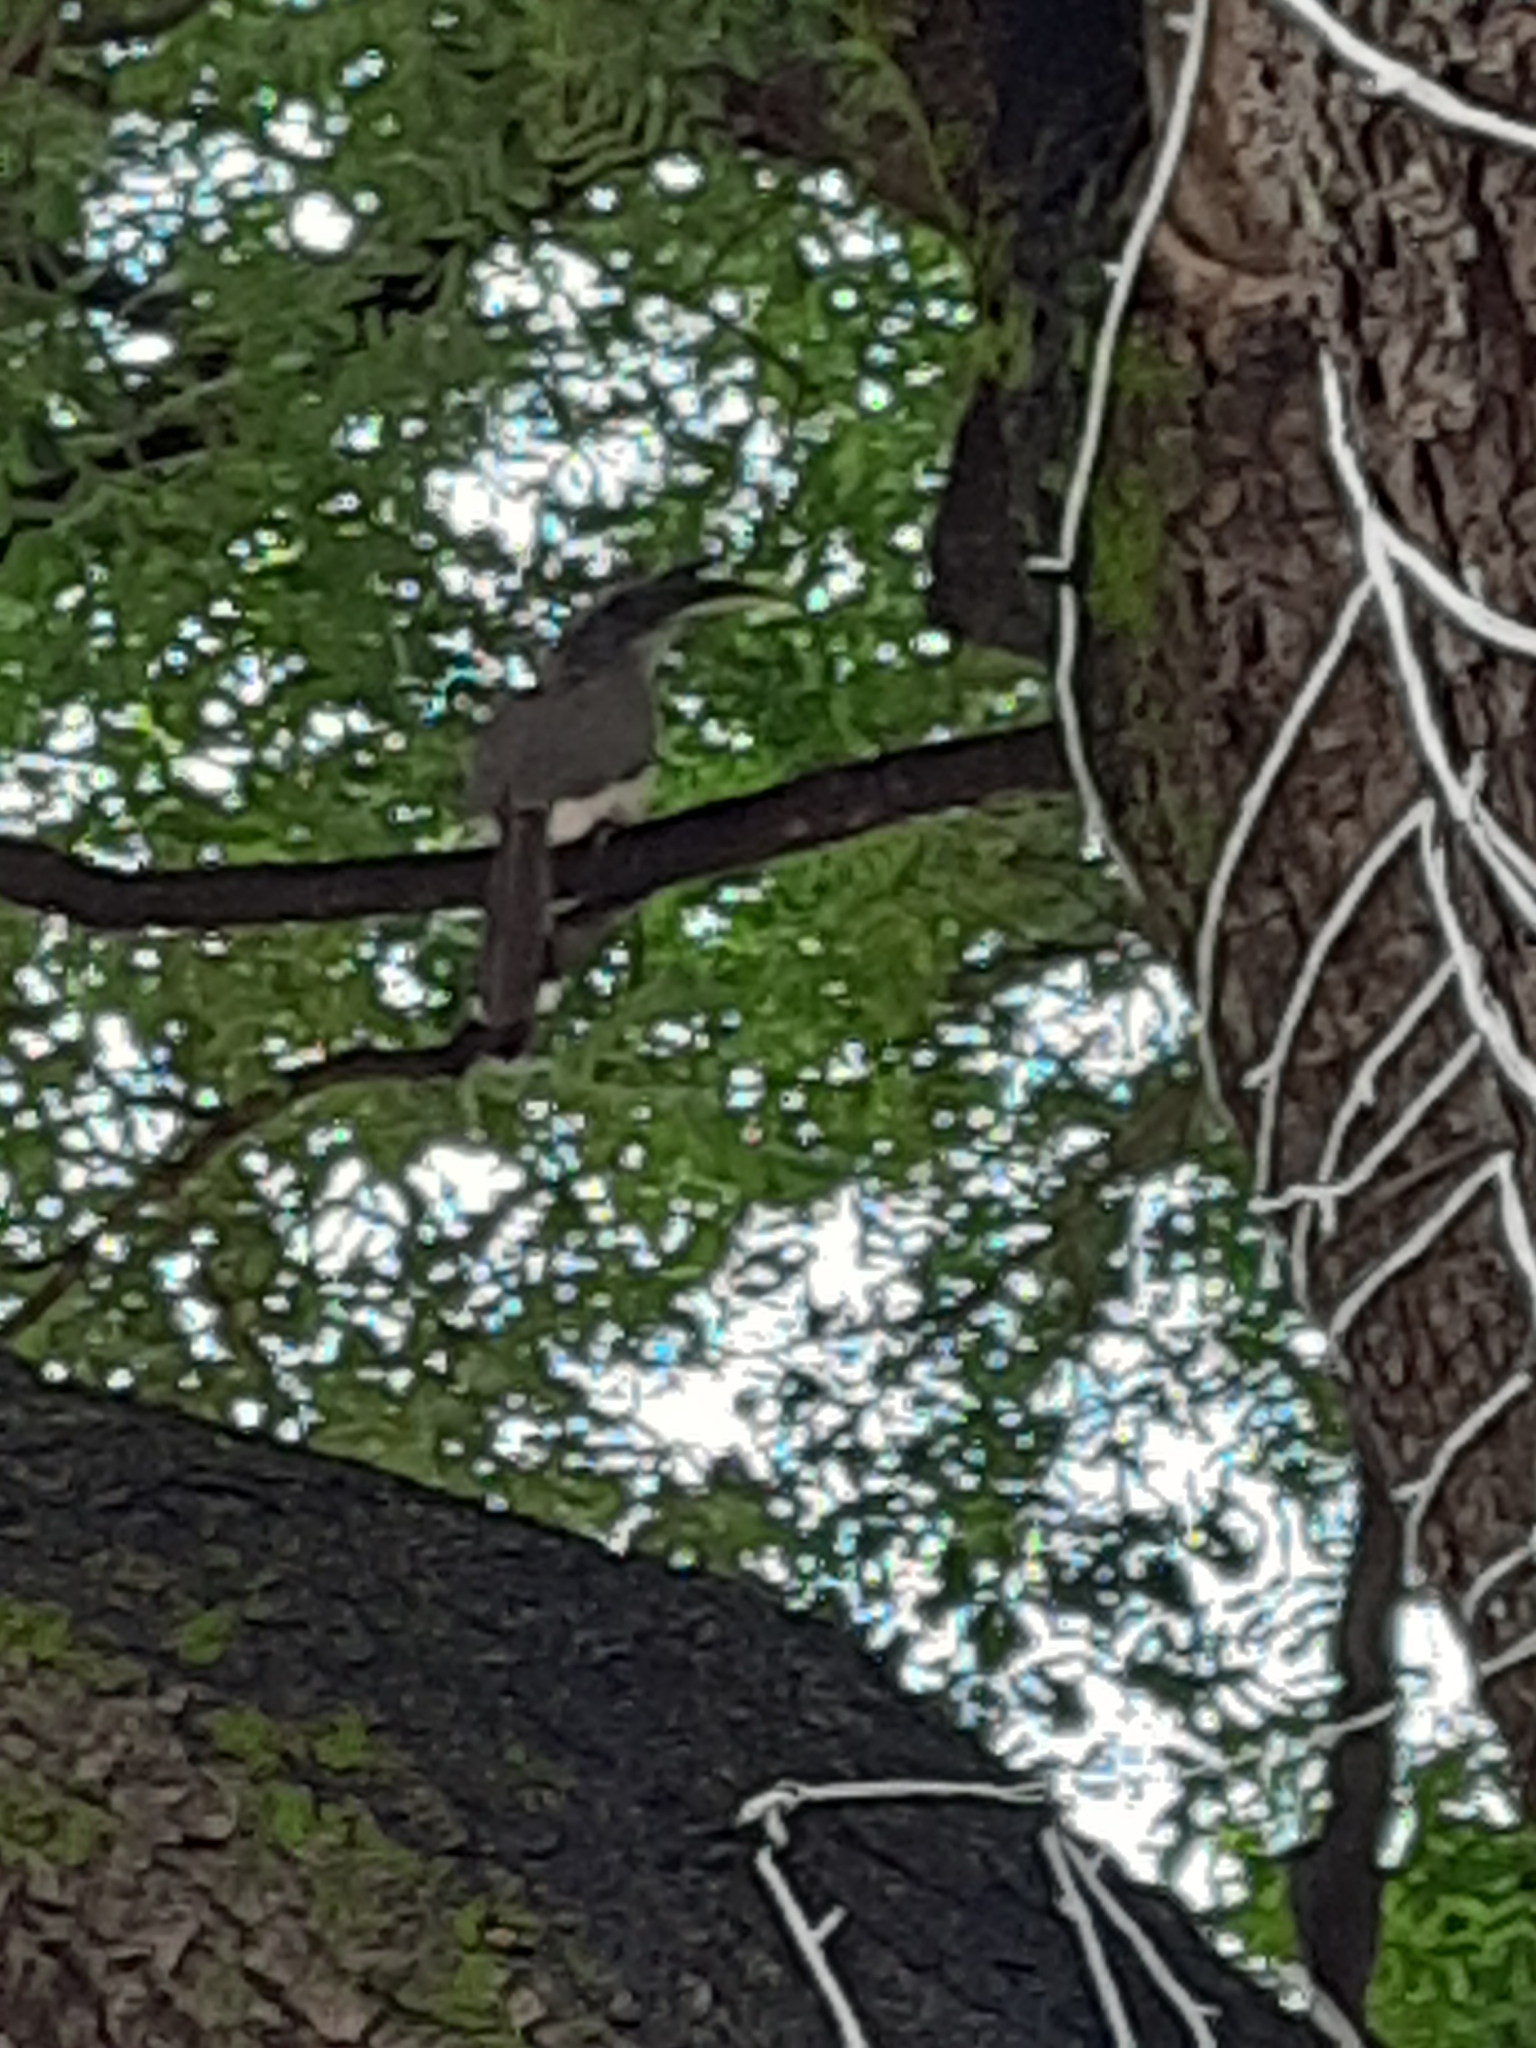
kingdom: Animalia
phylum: Chordata
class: Aves
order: Bucerotiformes
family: Bucerotidae
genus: Ocyceros
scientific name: Ocyceros birostris
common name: Indian grey hornbill
